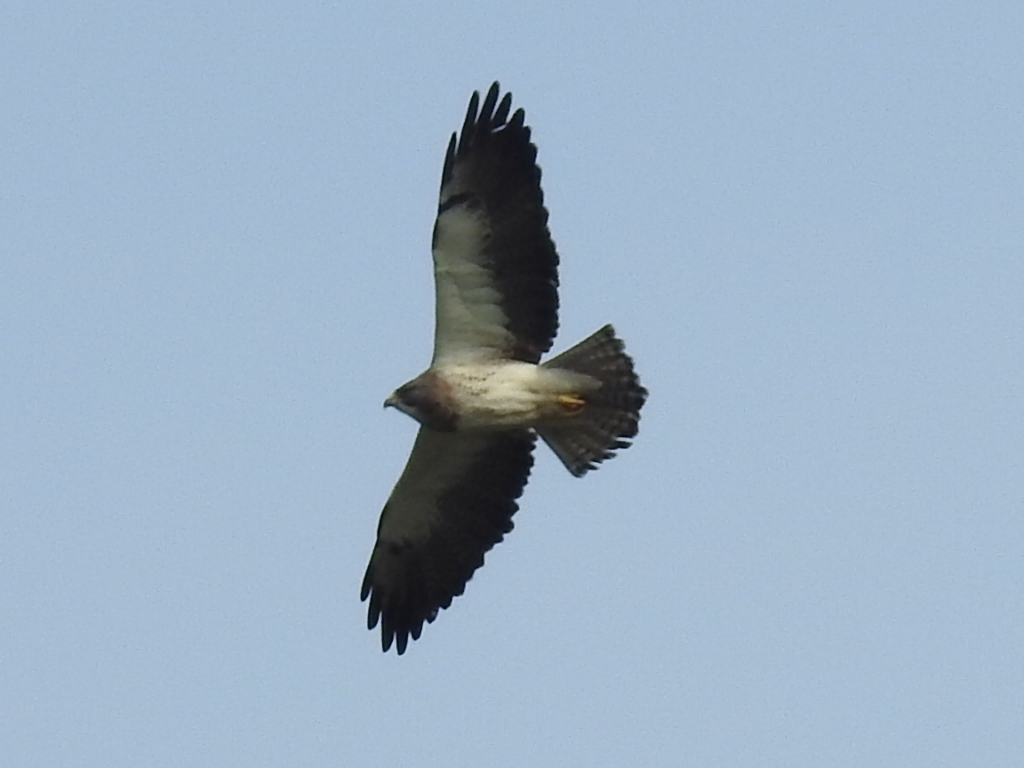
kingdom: Animalia
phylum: Chordata
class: Aves
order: Accipitriformes
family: Accipitridae
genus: Buteo
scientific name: Buteo swainsoni
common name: Swainson's hawk
